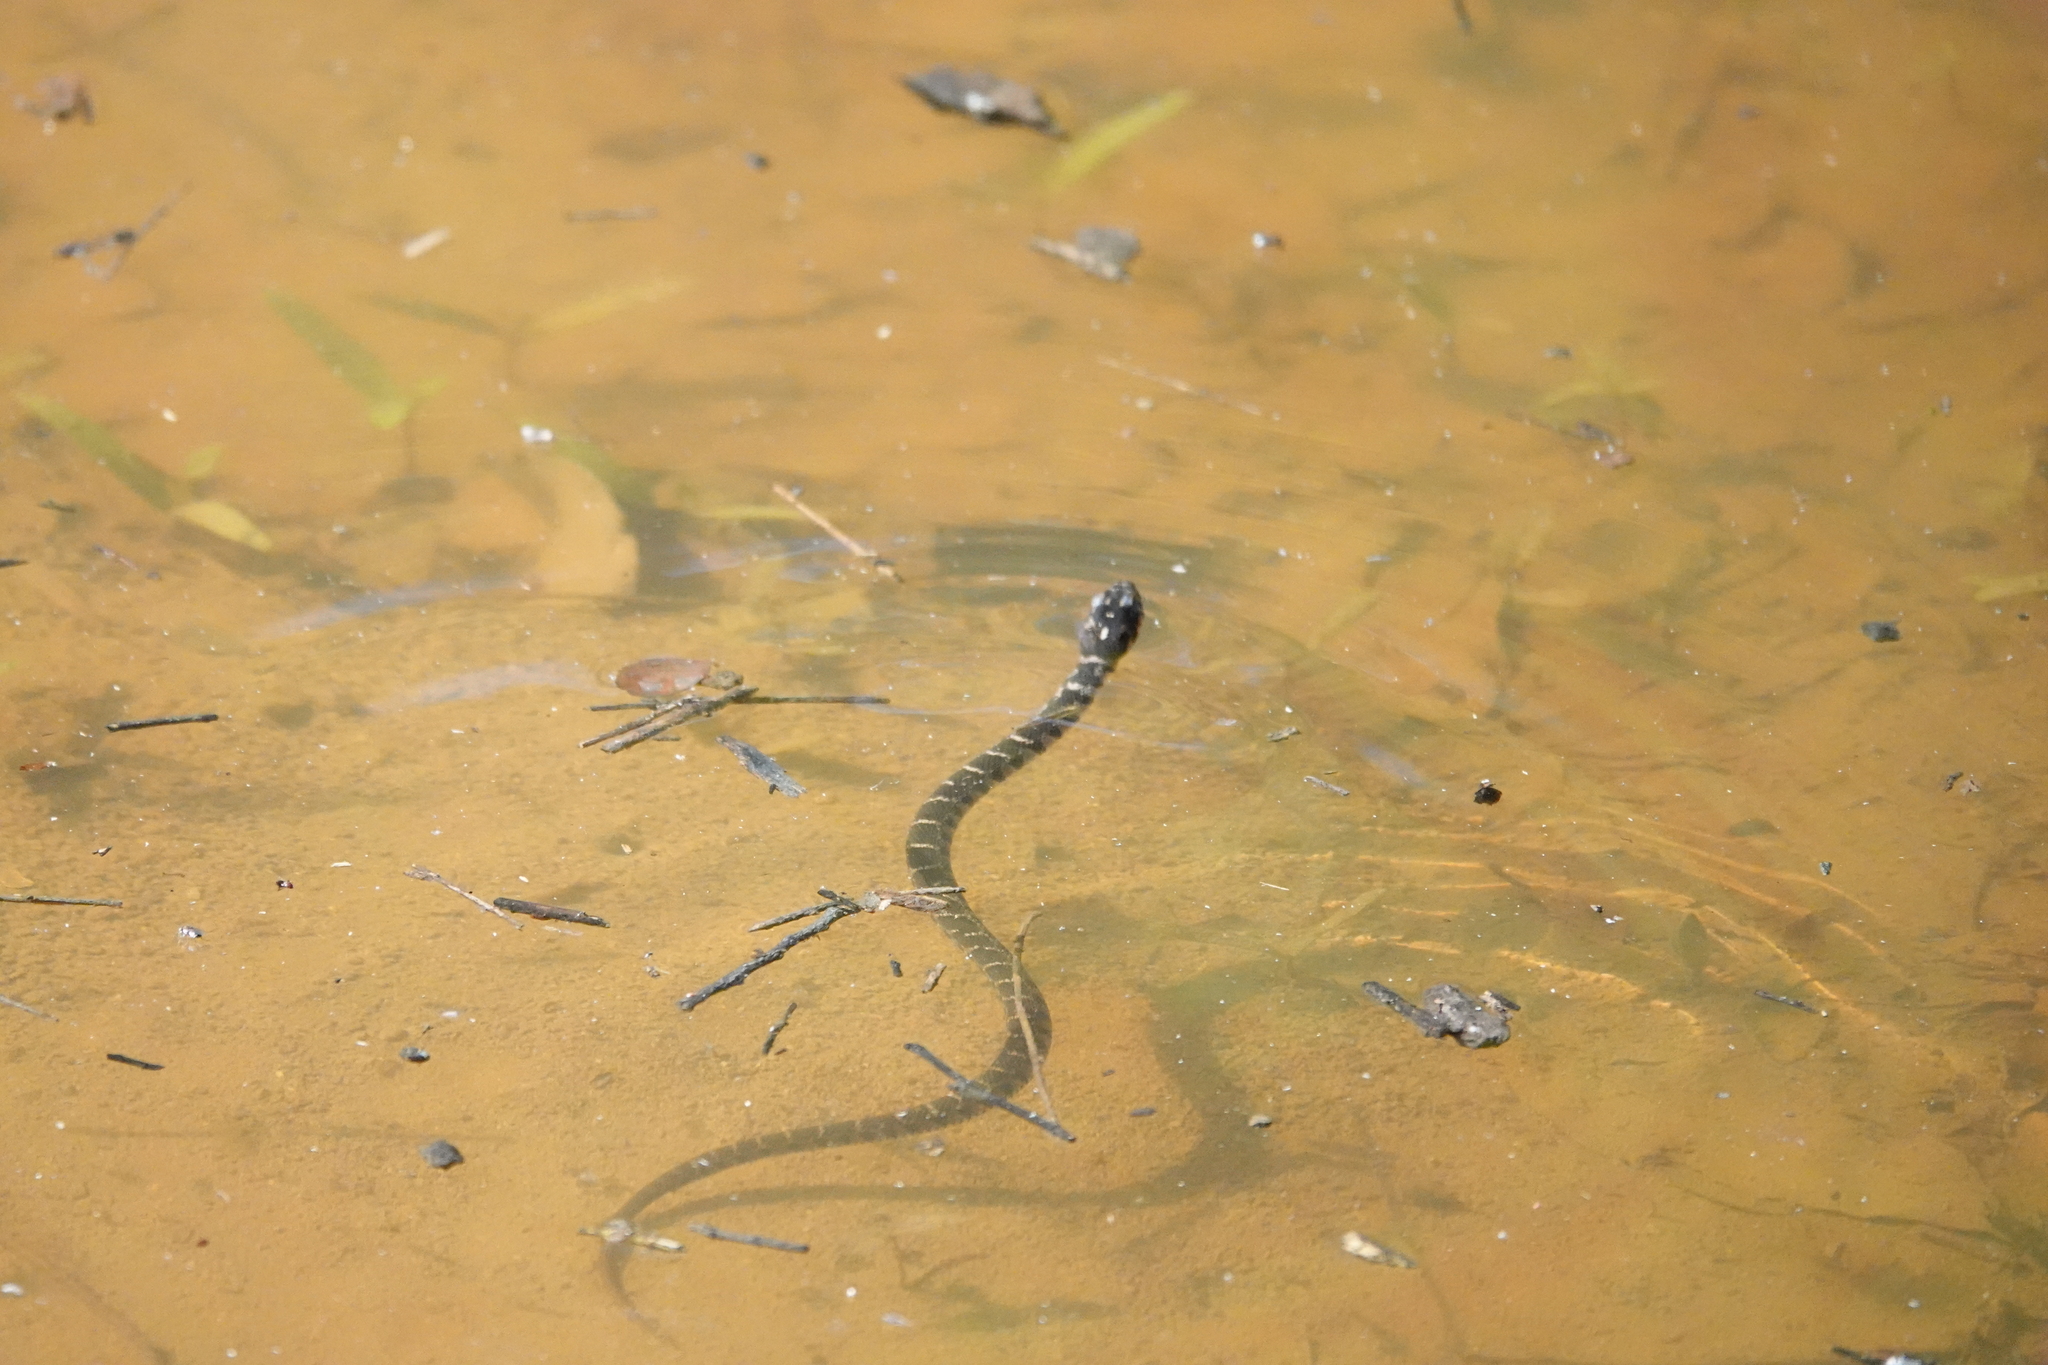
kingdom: Animalia
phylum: Chordata
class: Squamata
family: Colubridae
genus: Nerodia
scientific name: Nerodia erythrogaster
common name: Plainbelly water snake
